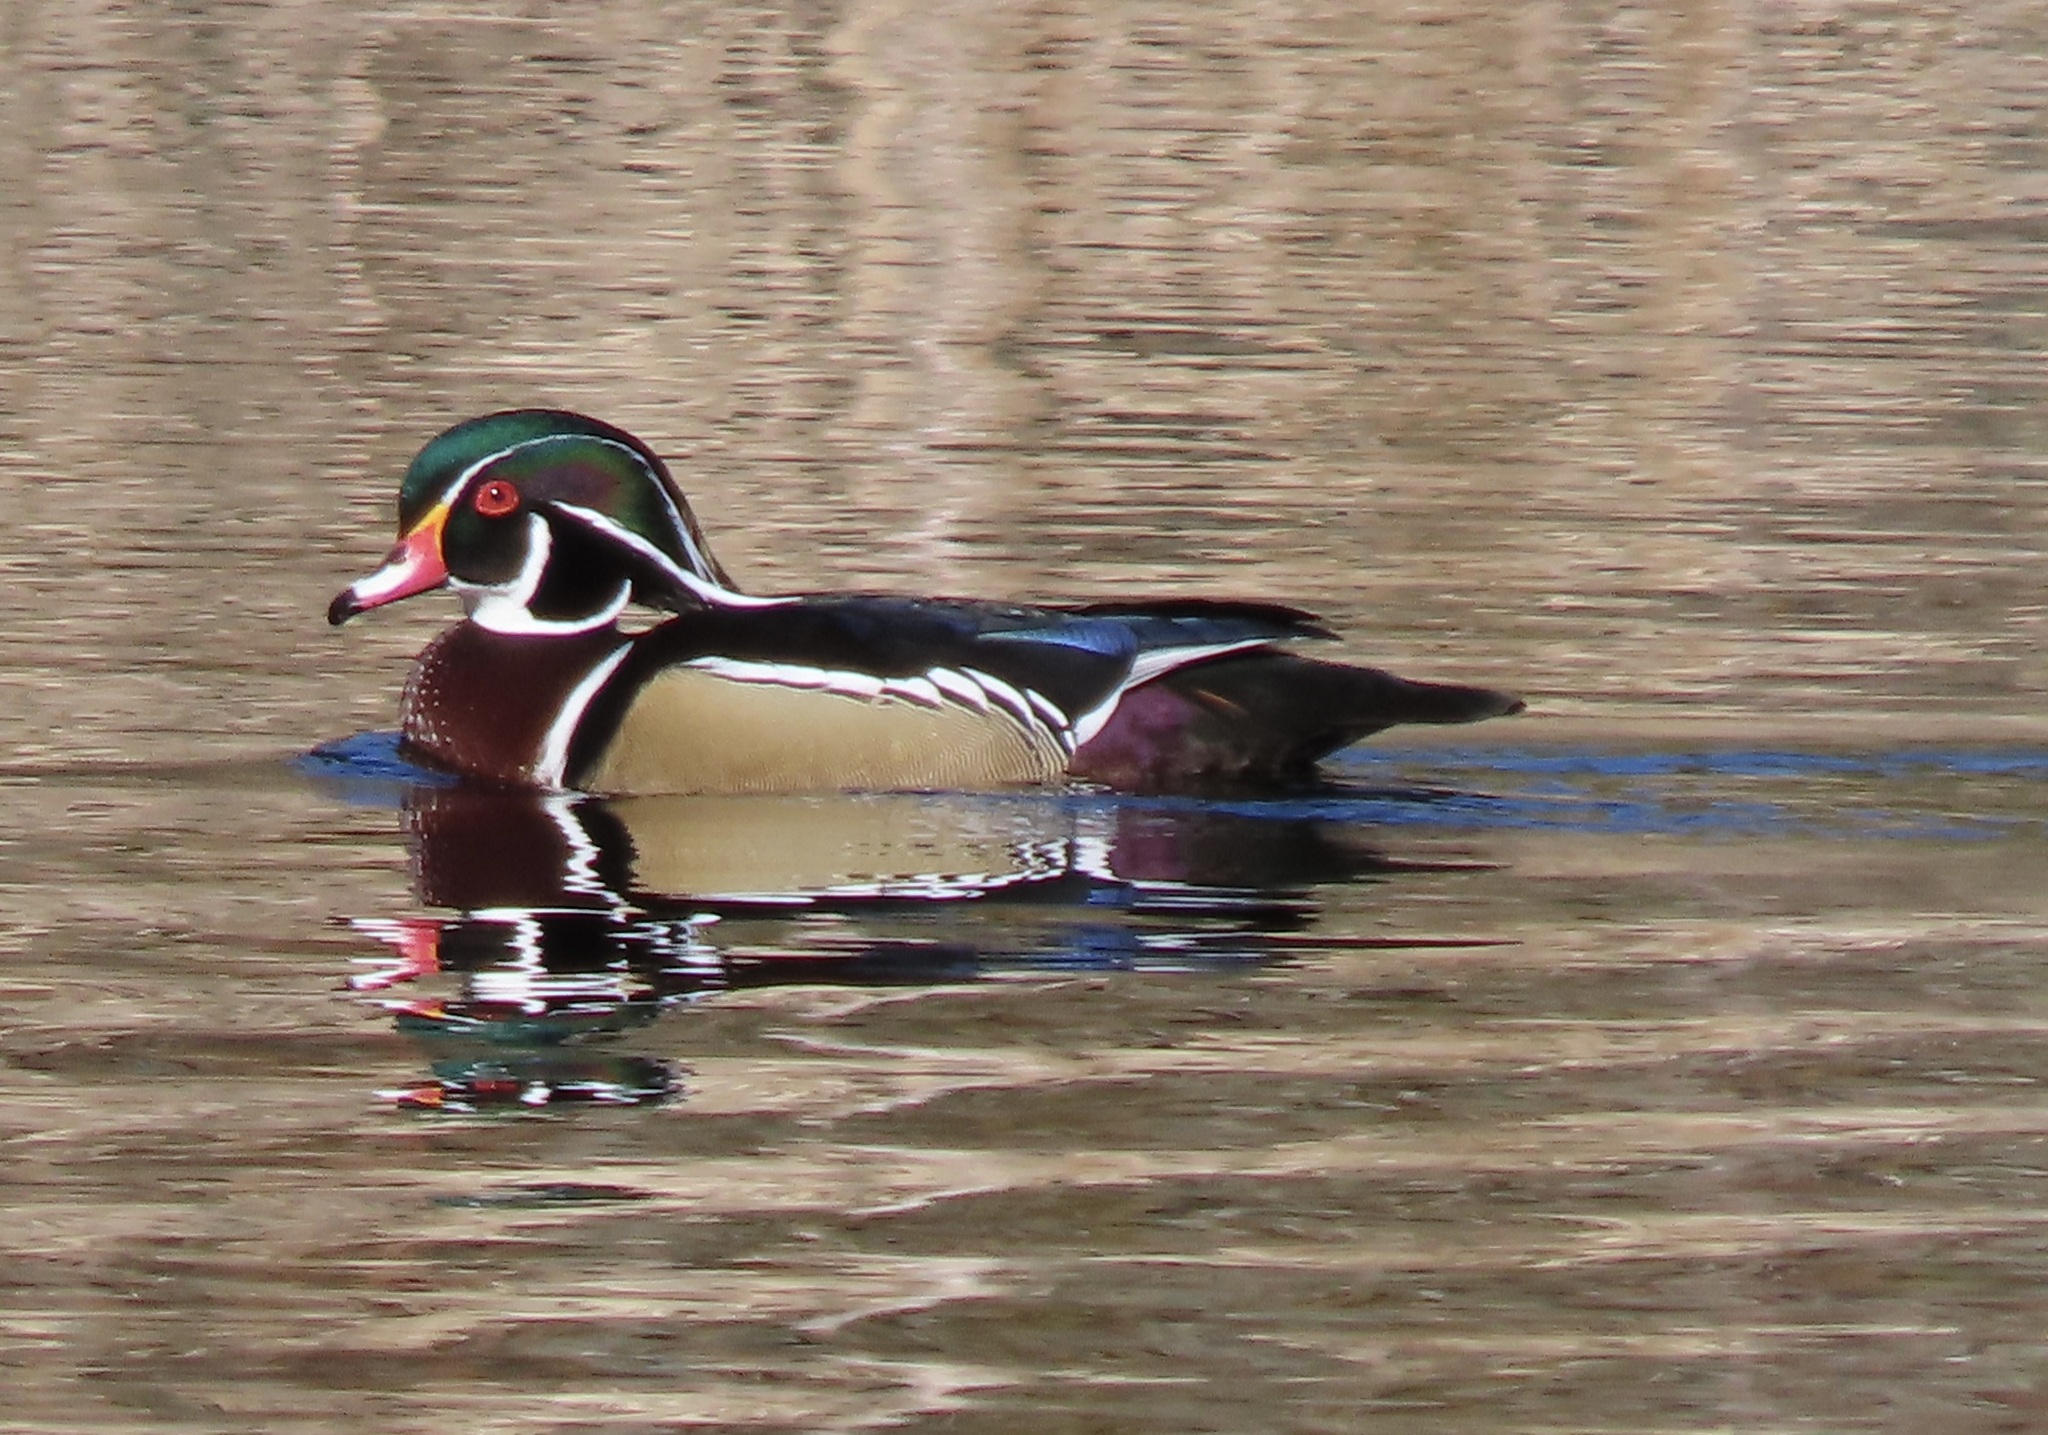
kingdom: Animalia
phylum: Chordata
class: Aves
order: Anseriformes
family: Anatidae
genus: Aix
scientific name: Aix sponsa
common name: Wood duck
